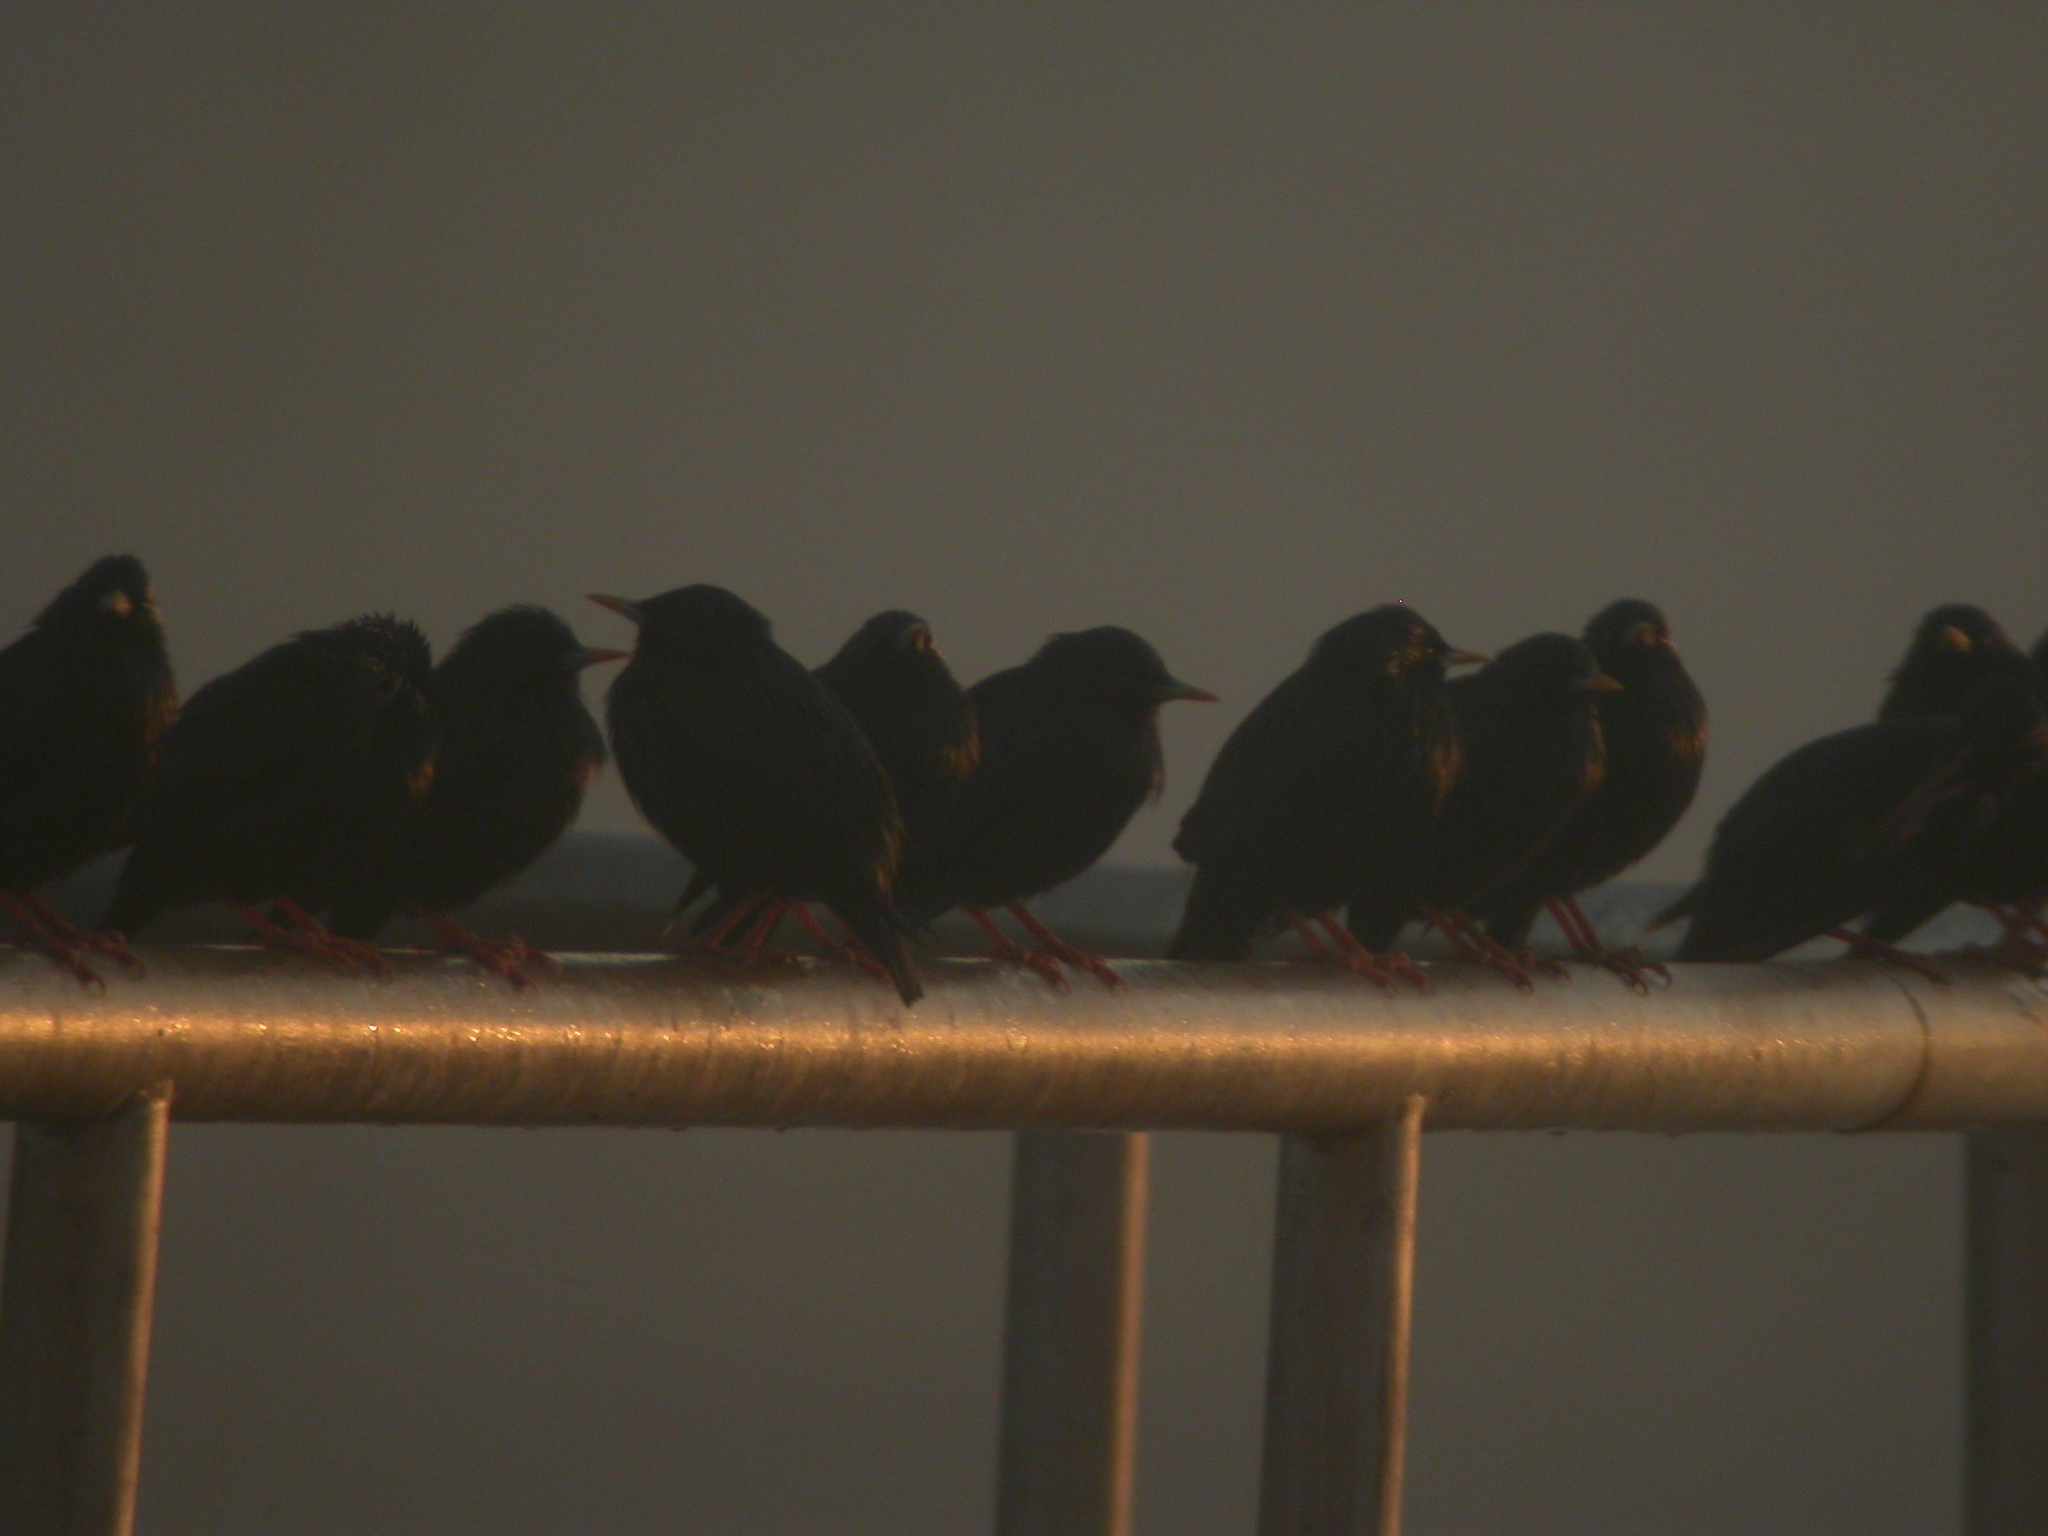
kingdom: Animalia
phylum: Chordata
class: Aves
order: Passeriformes
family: Sturnidae
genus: Sturnus
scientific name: Sturnus unicolor
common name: Spotless starling
